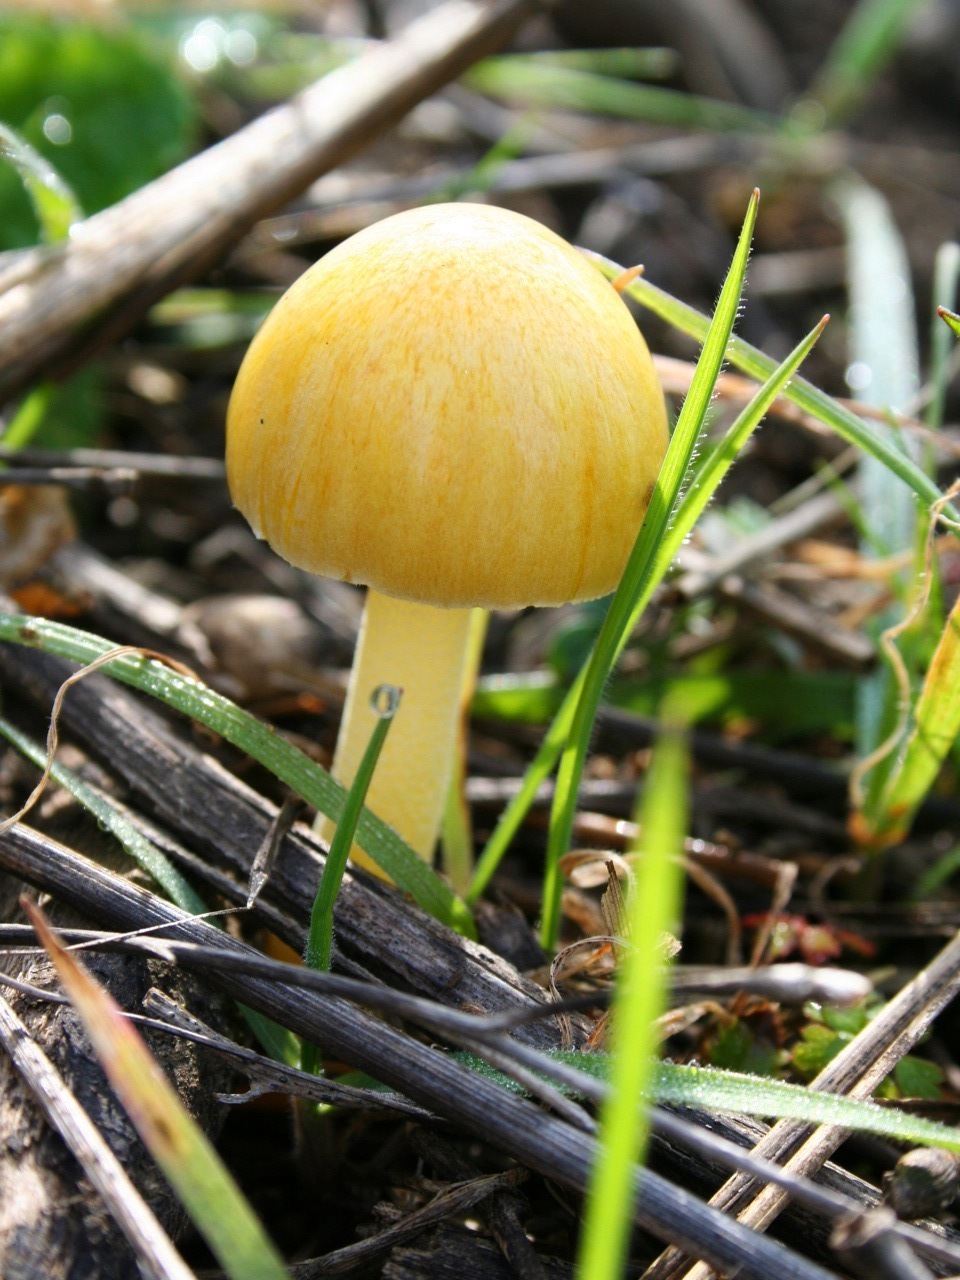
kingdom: Fungi
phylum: Basidiomycota
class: Agaricomycetes
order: Agaricales
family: Bolbitiaceae
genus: Bolbitius
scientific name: Bolbitius titubans
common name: Yellow fieldcap
